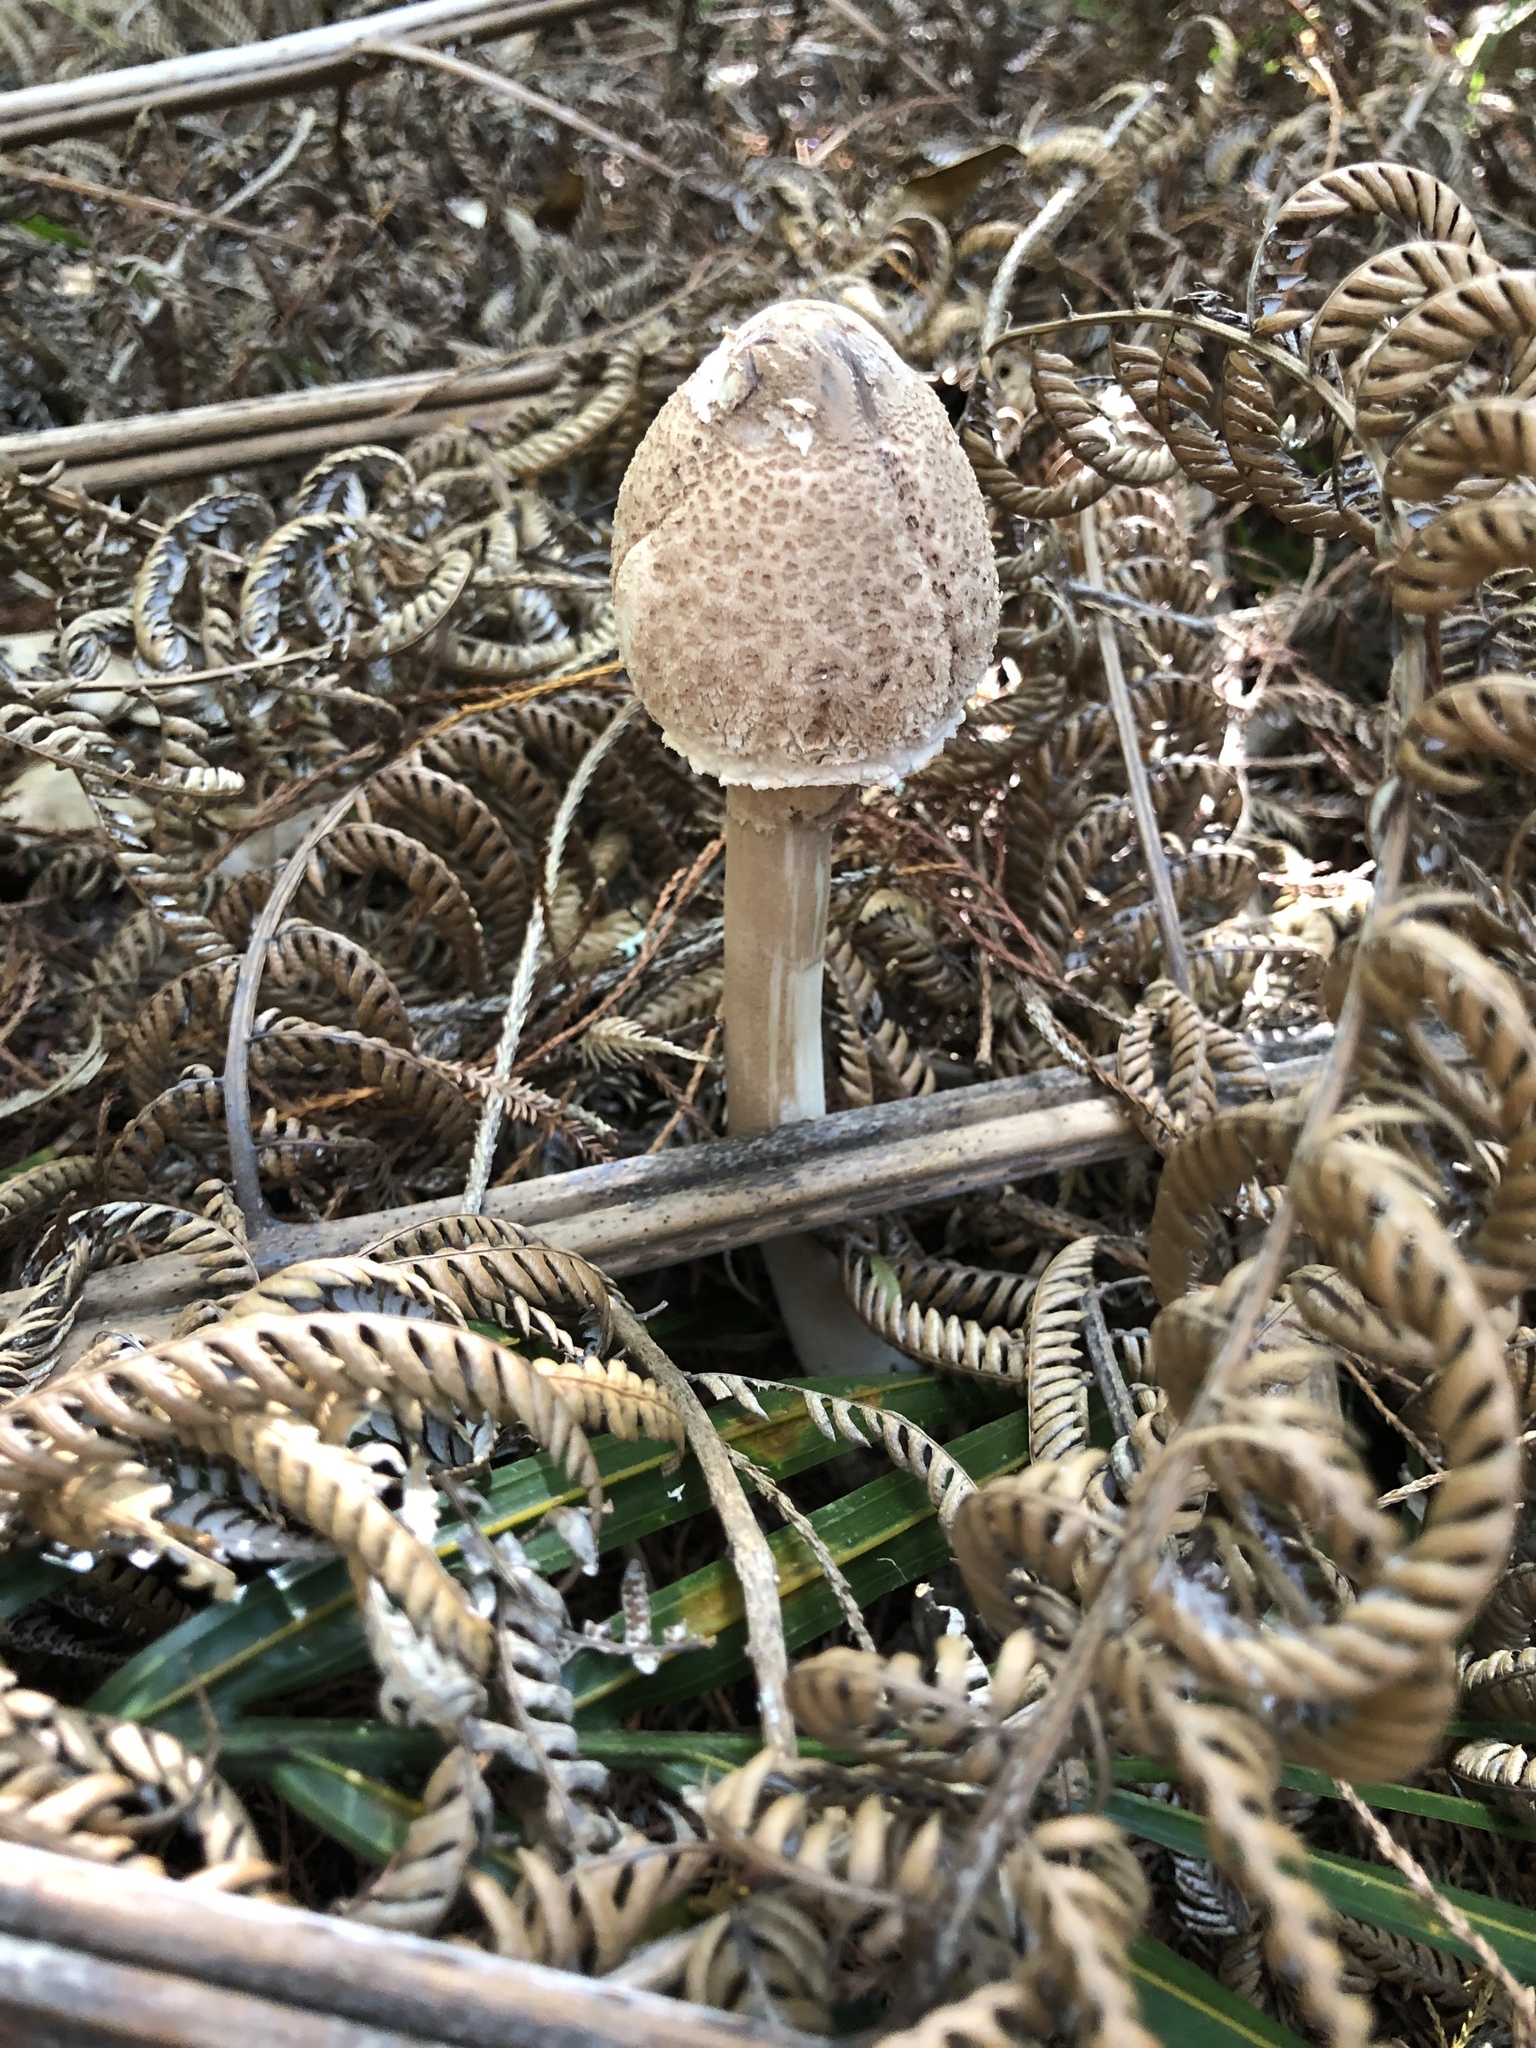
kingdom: Fungi
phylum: Basidiomycota
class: Agaricomycetes
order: Agaricales
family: Agaricaceae
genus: Macrolepiota
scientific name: Macrolepiota clelandii
